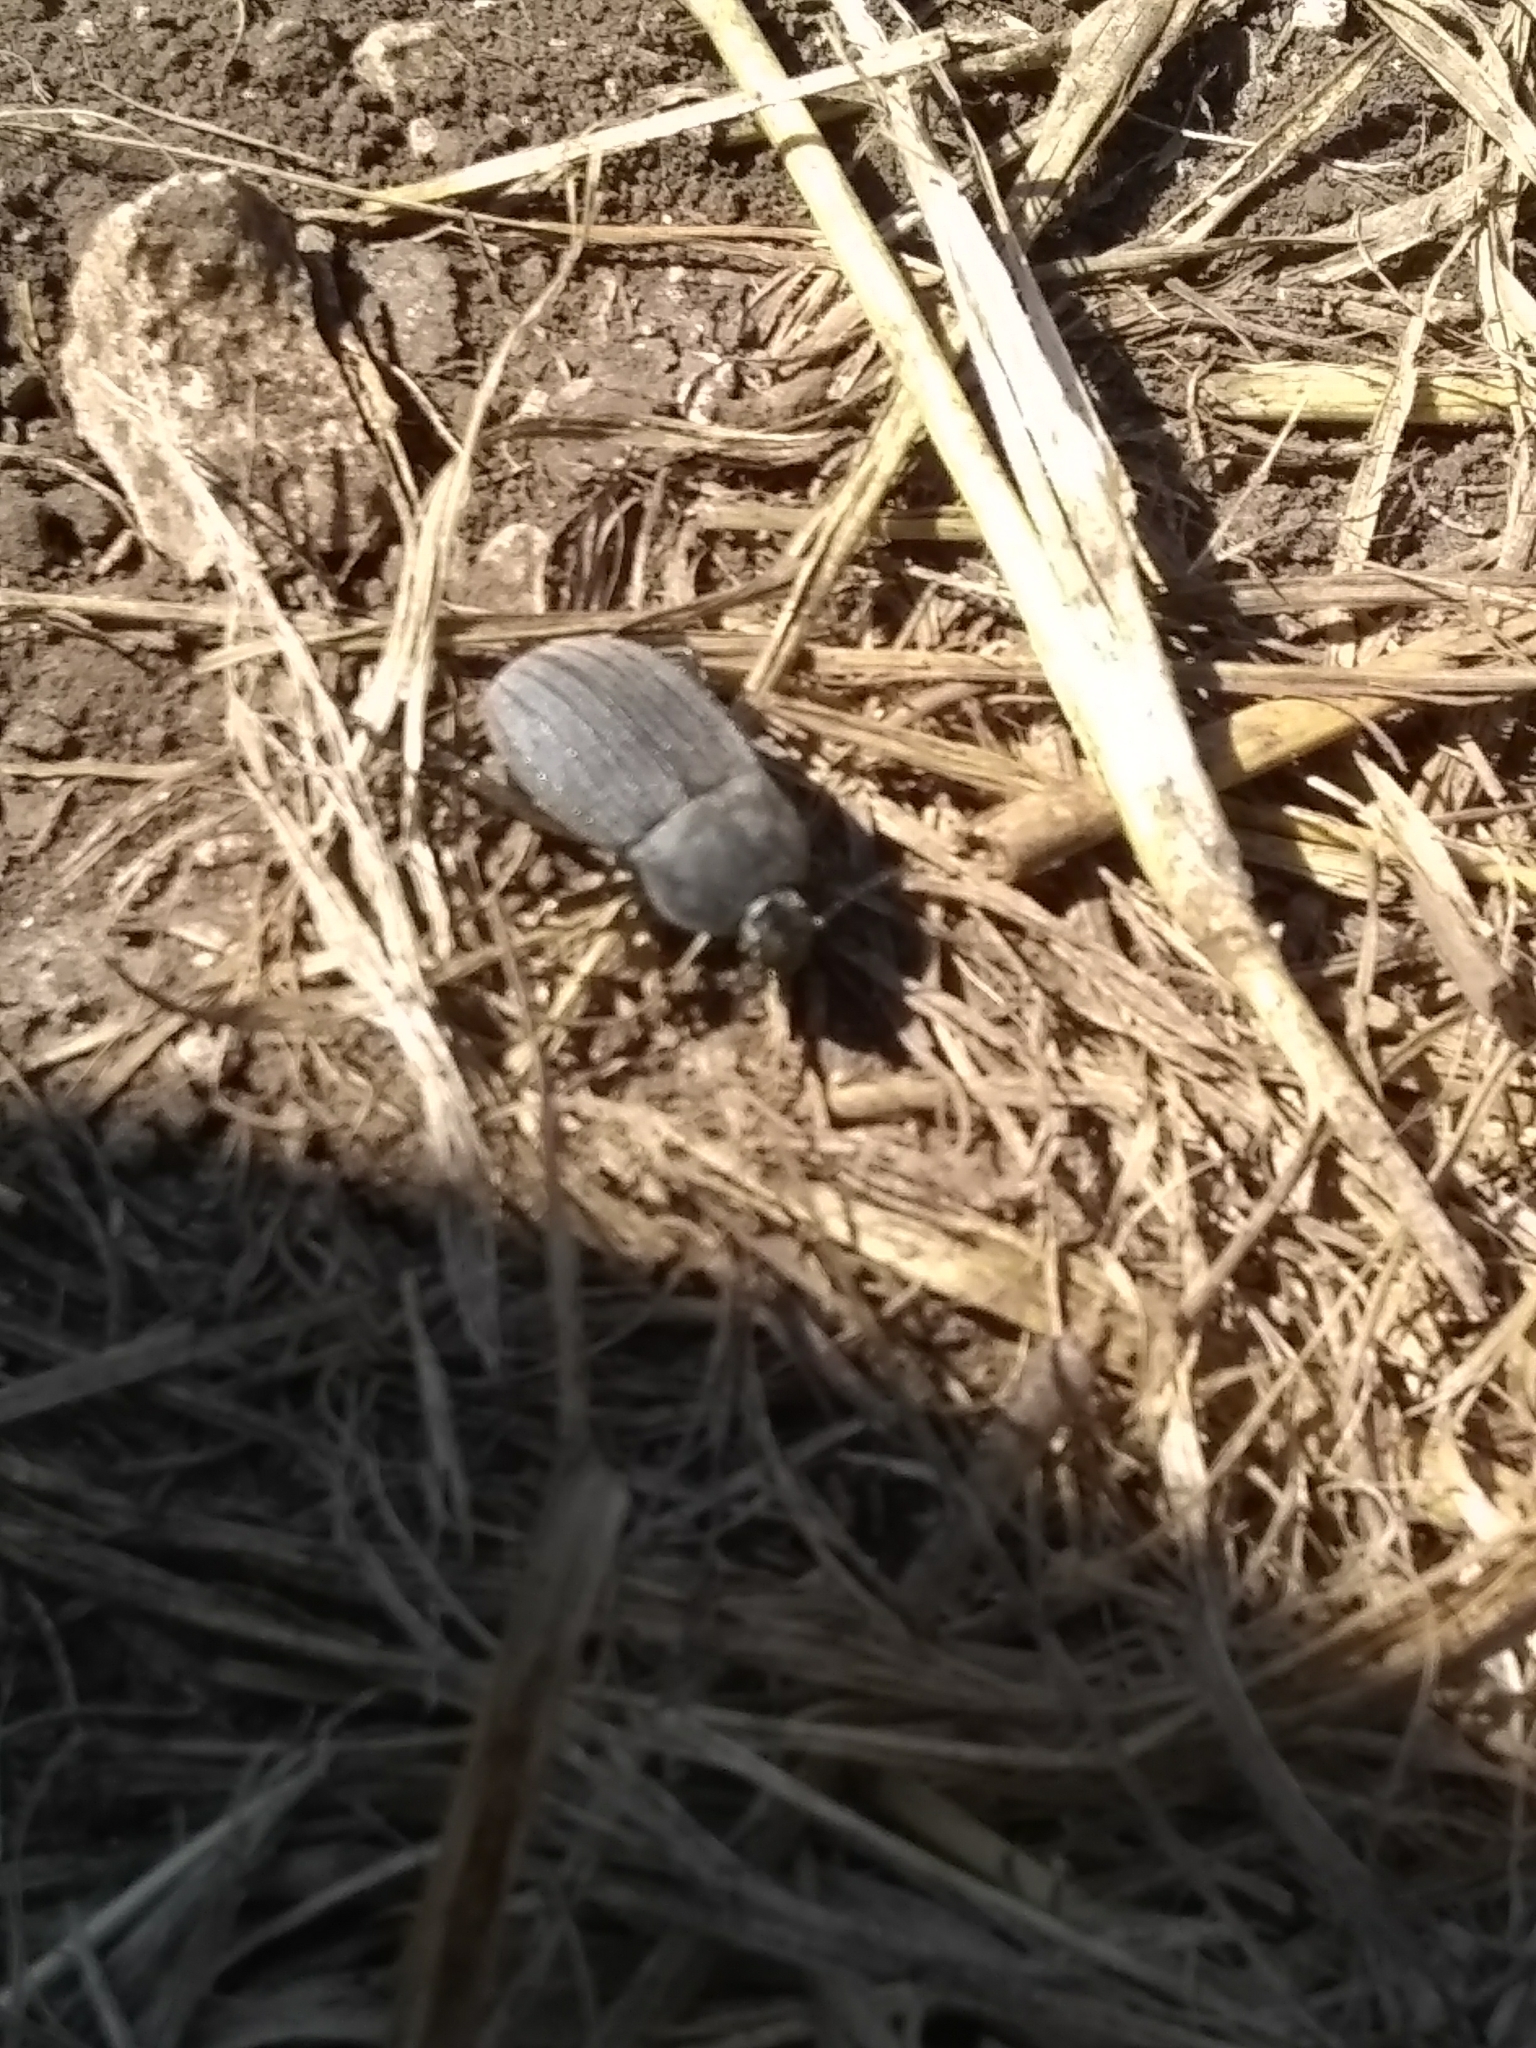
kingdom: Animalia
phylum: Arthropoda
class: Insecta
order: Coleoptera
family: Tenebrionidae
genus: Eleodes
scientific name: Eleodes tricostata
